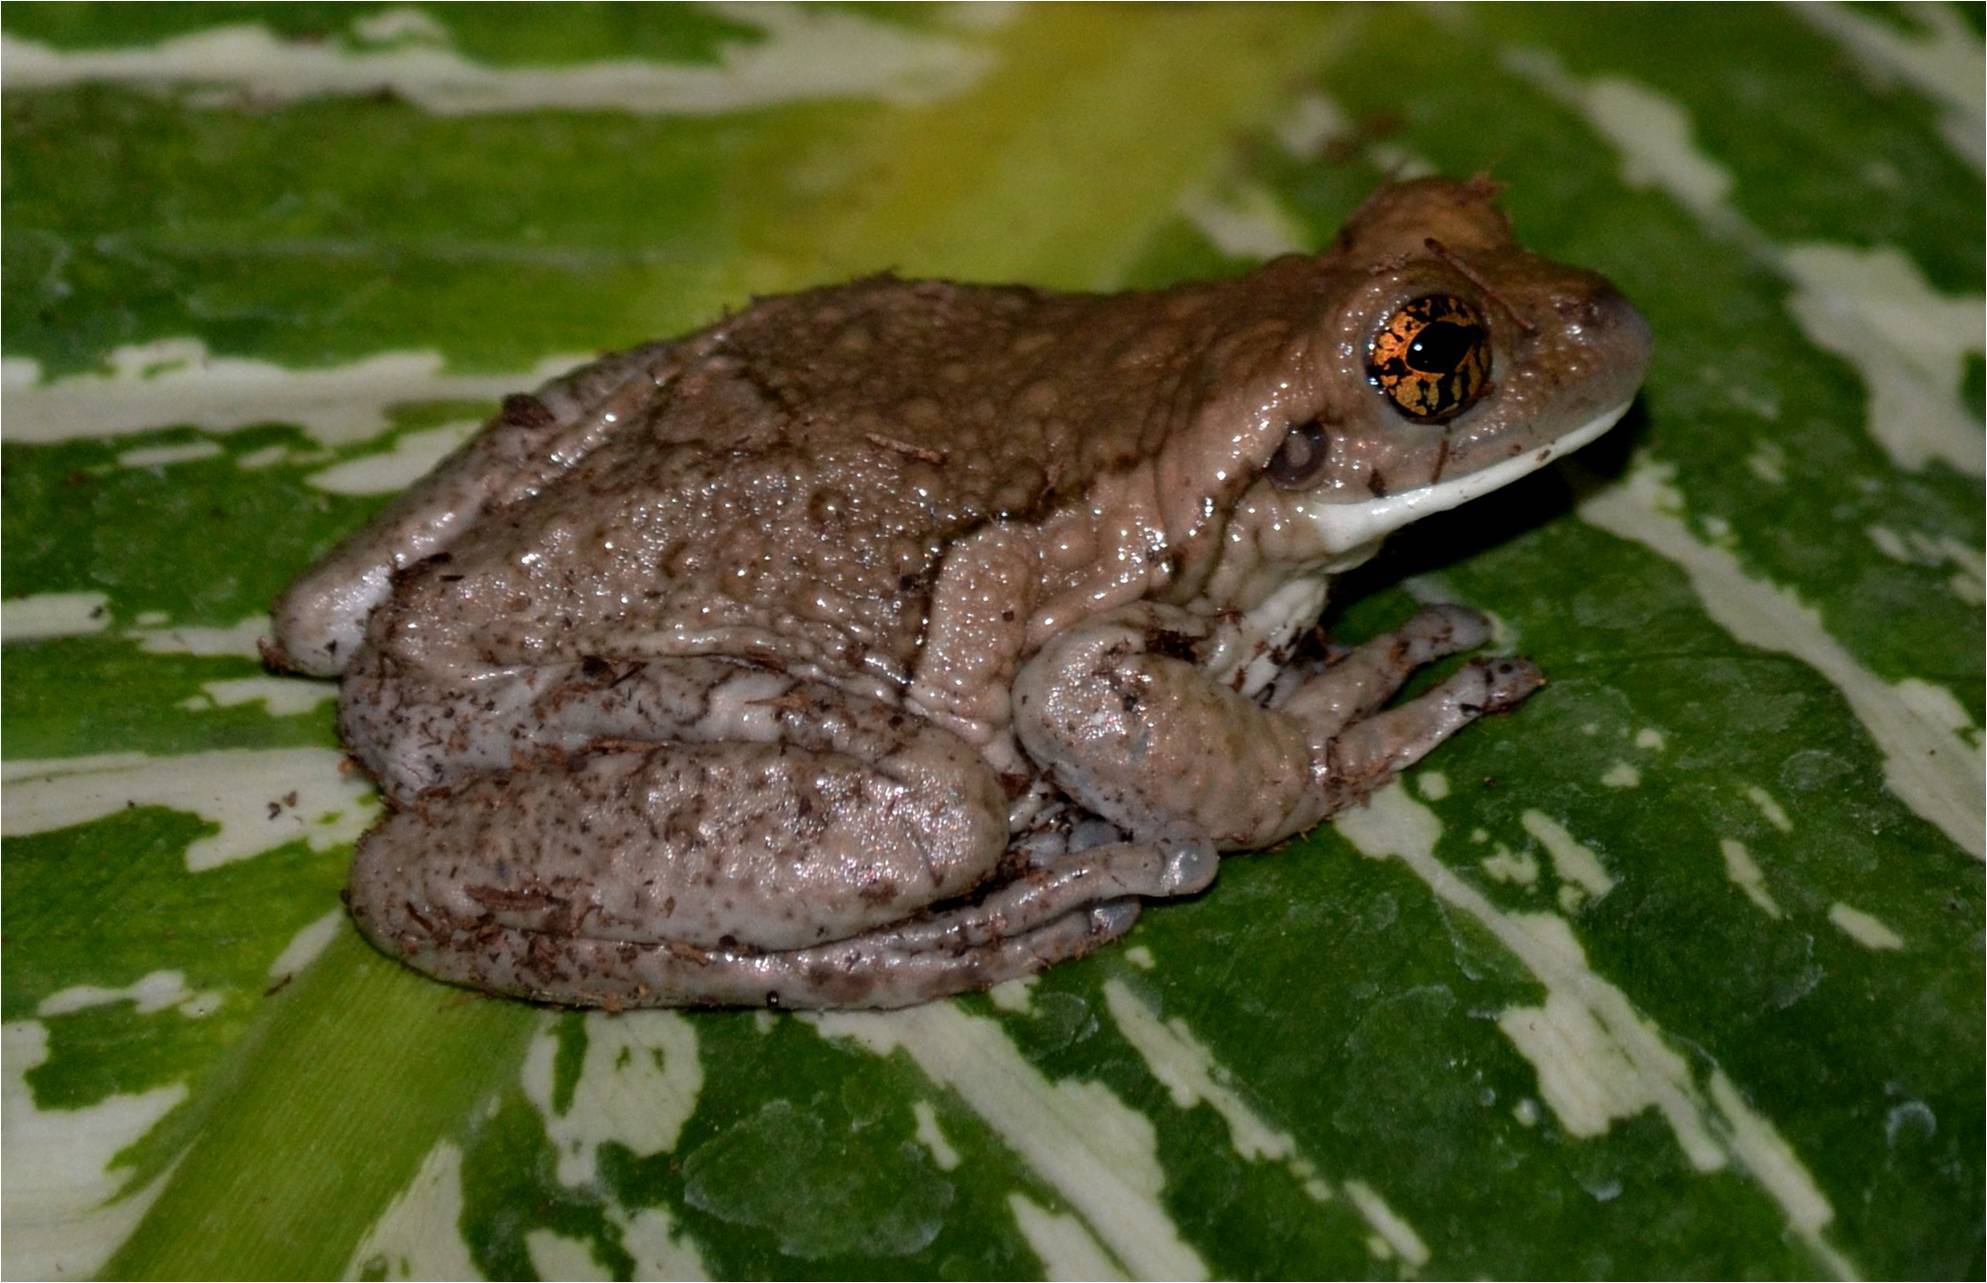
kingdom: Animalia
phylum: Chordata
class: Amphibia
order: Anura
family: Hylidae
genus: Trachycephalus
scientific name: Trachycephalus vermiculatus
